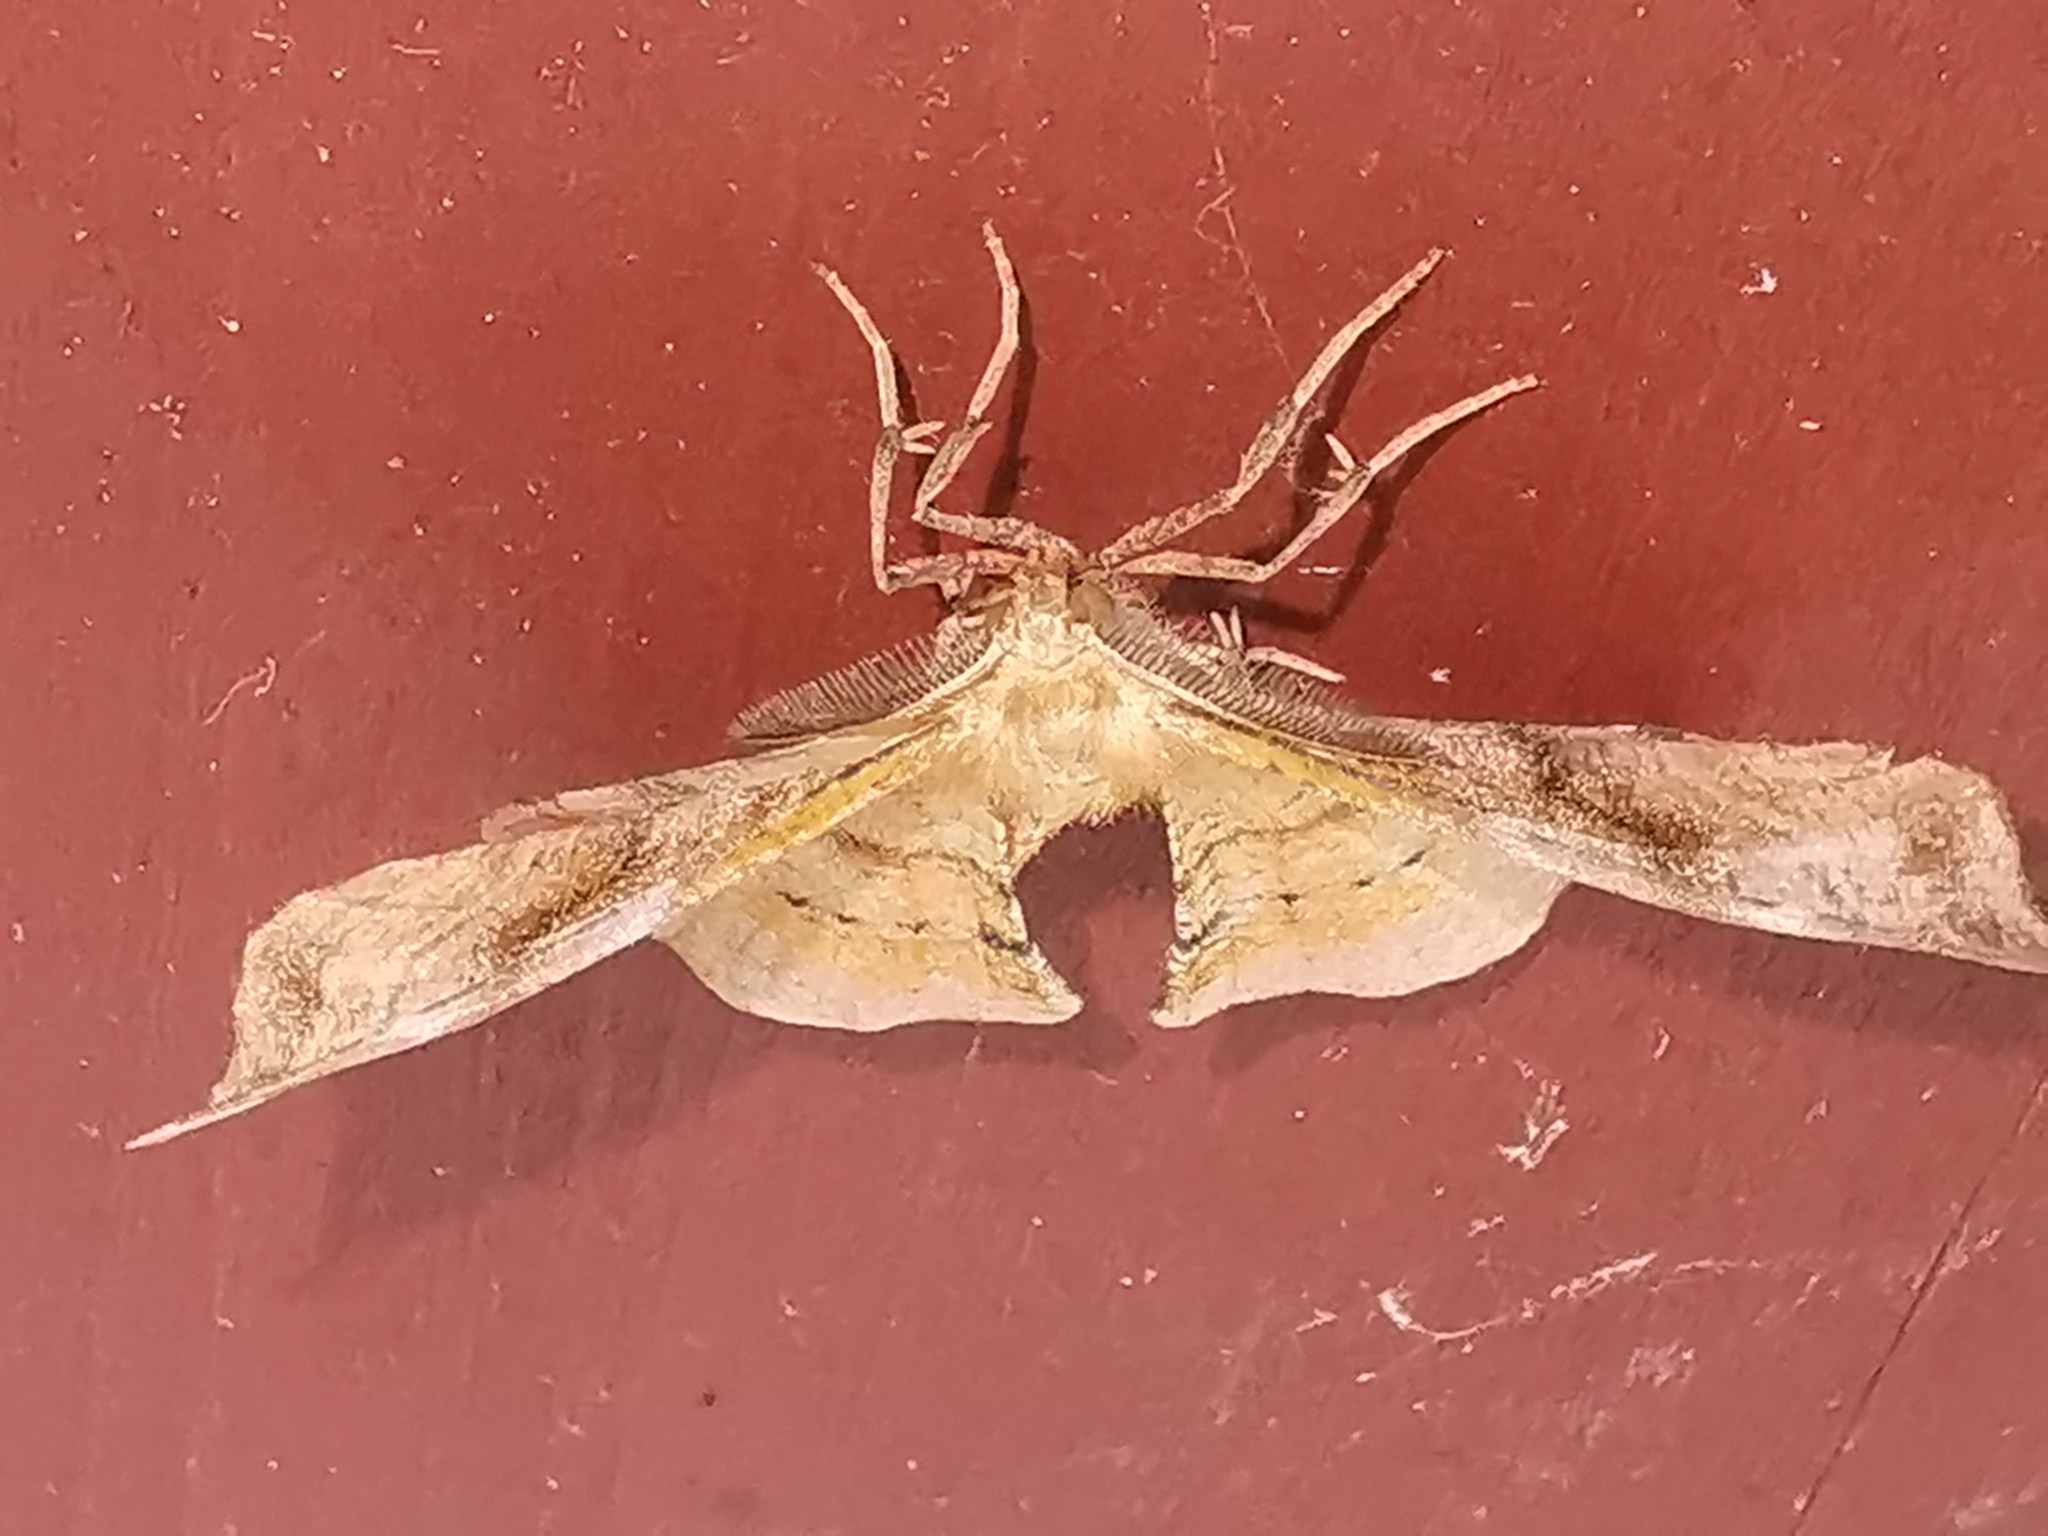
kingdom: Animalia
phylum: Arthropoda
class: Insecta
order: Lepidoptera
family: Geometridae
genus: Apeira
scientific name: Apeira syringaria
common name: Lilac beauty
